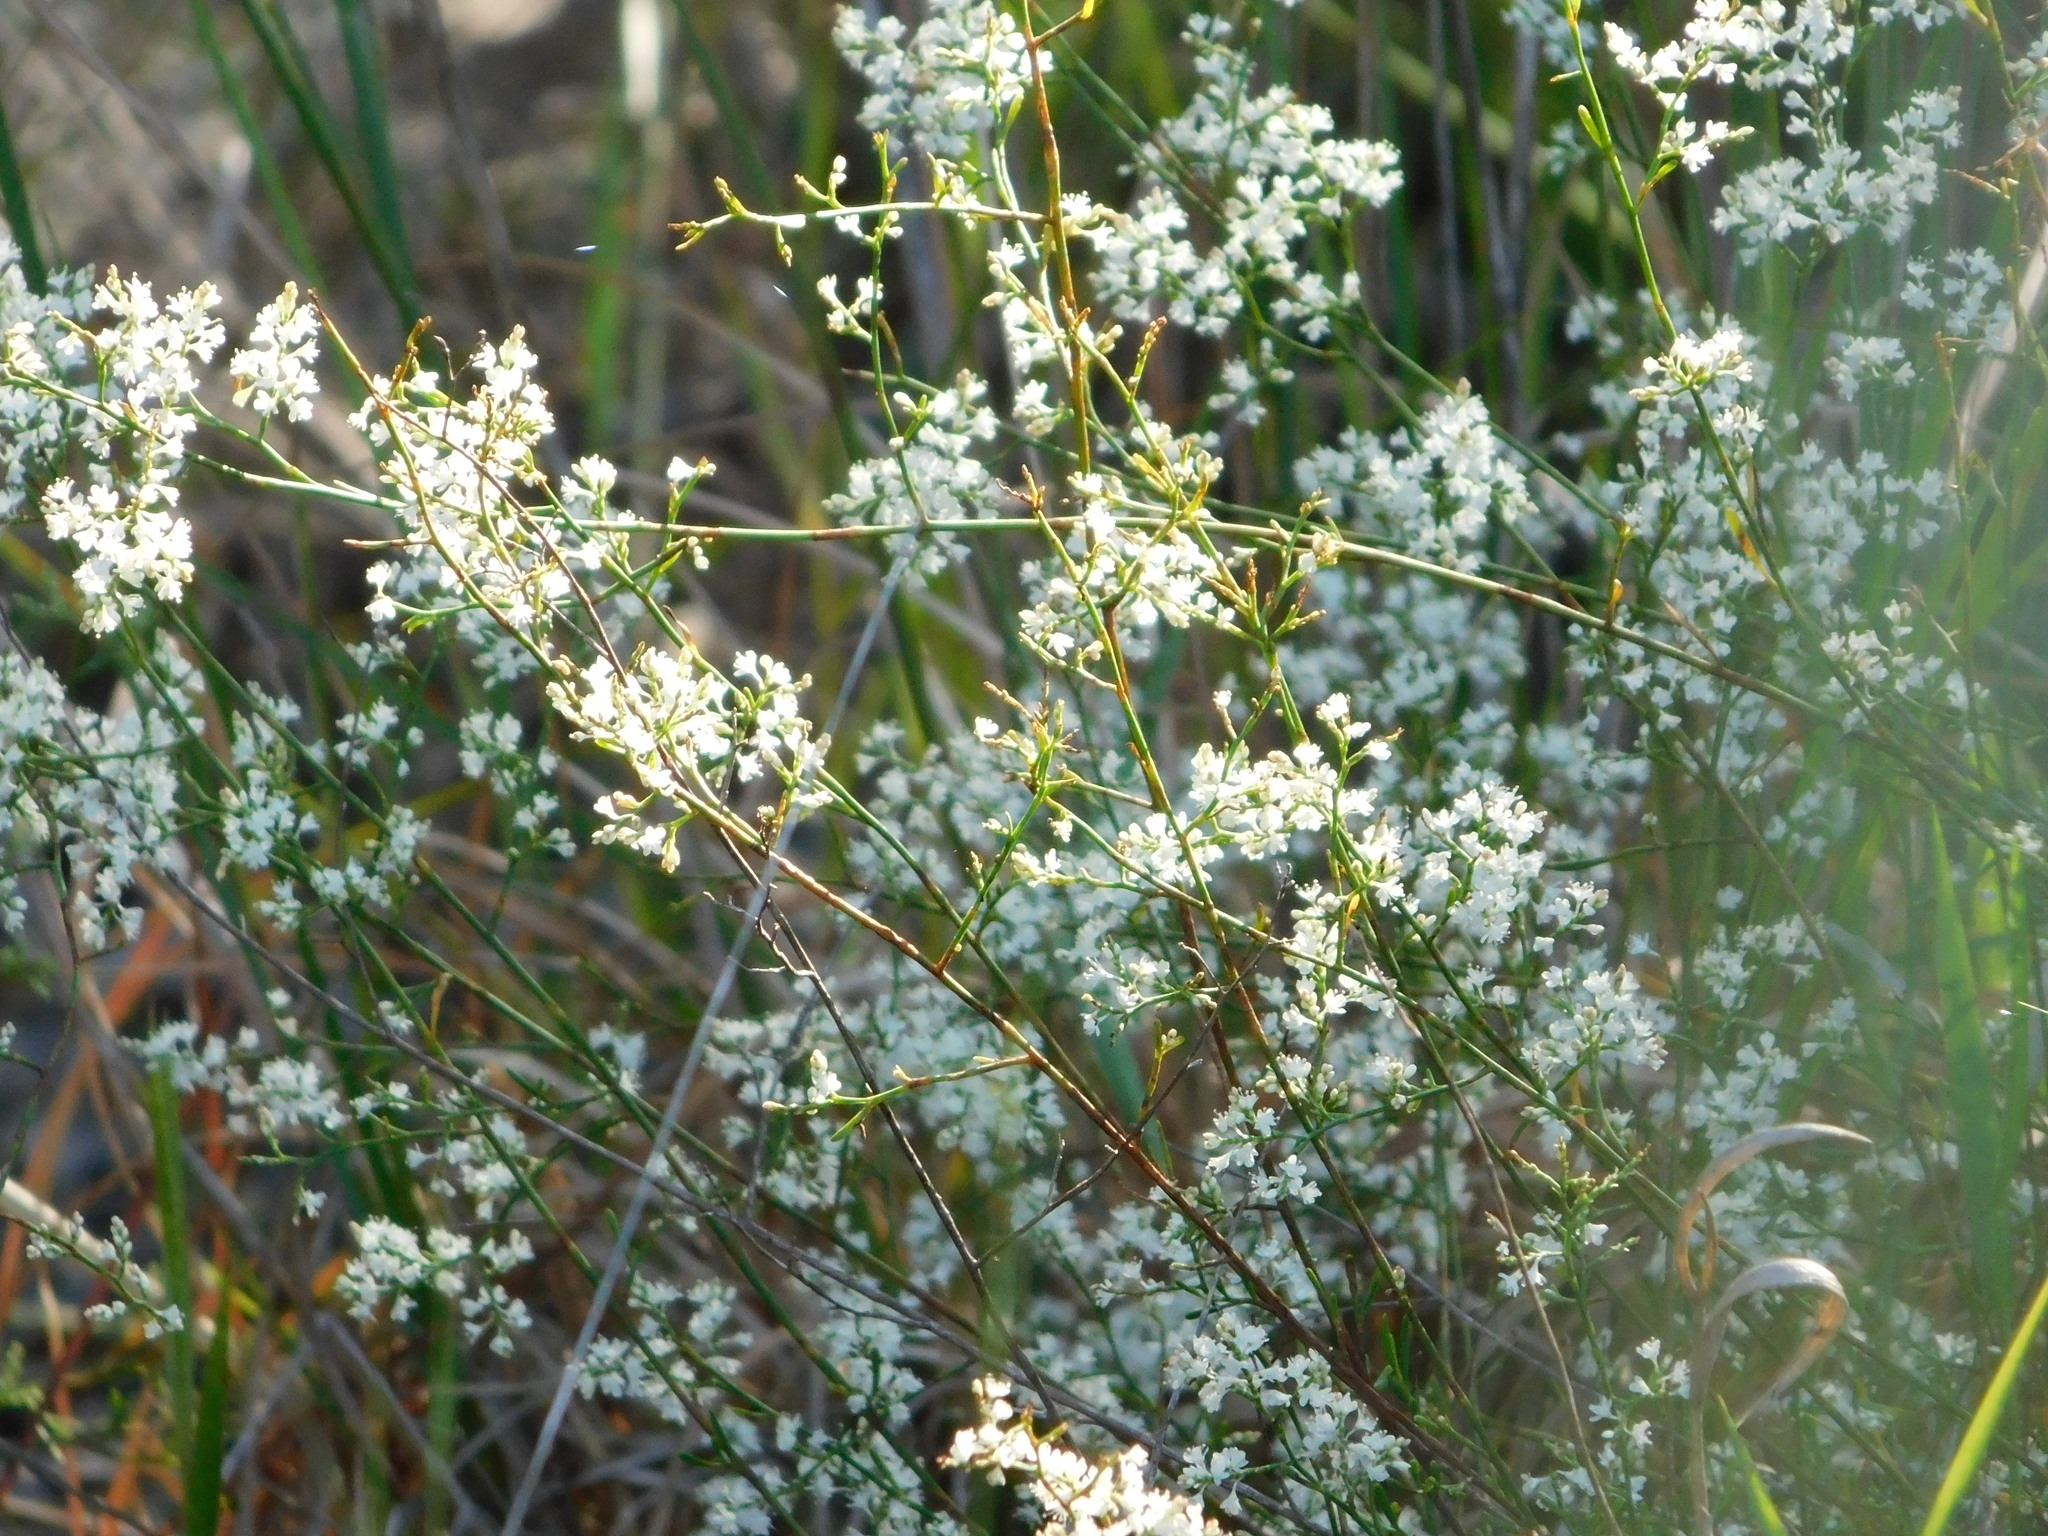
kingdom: Plantae
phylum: Tracheophyta
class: Magnoliopsida
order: Caryophyllales
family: Polygonaceae
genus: Polygonella
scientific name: Polygonella polygama
